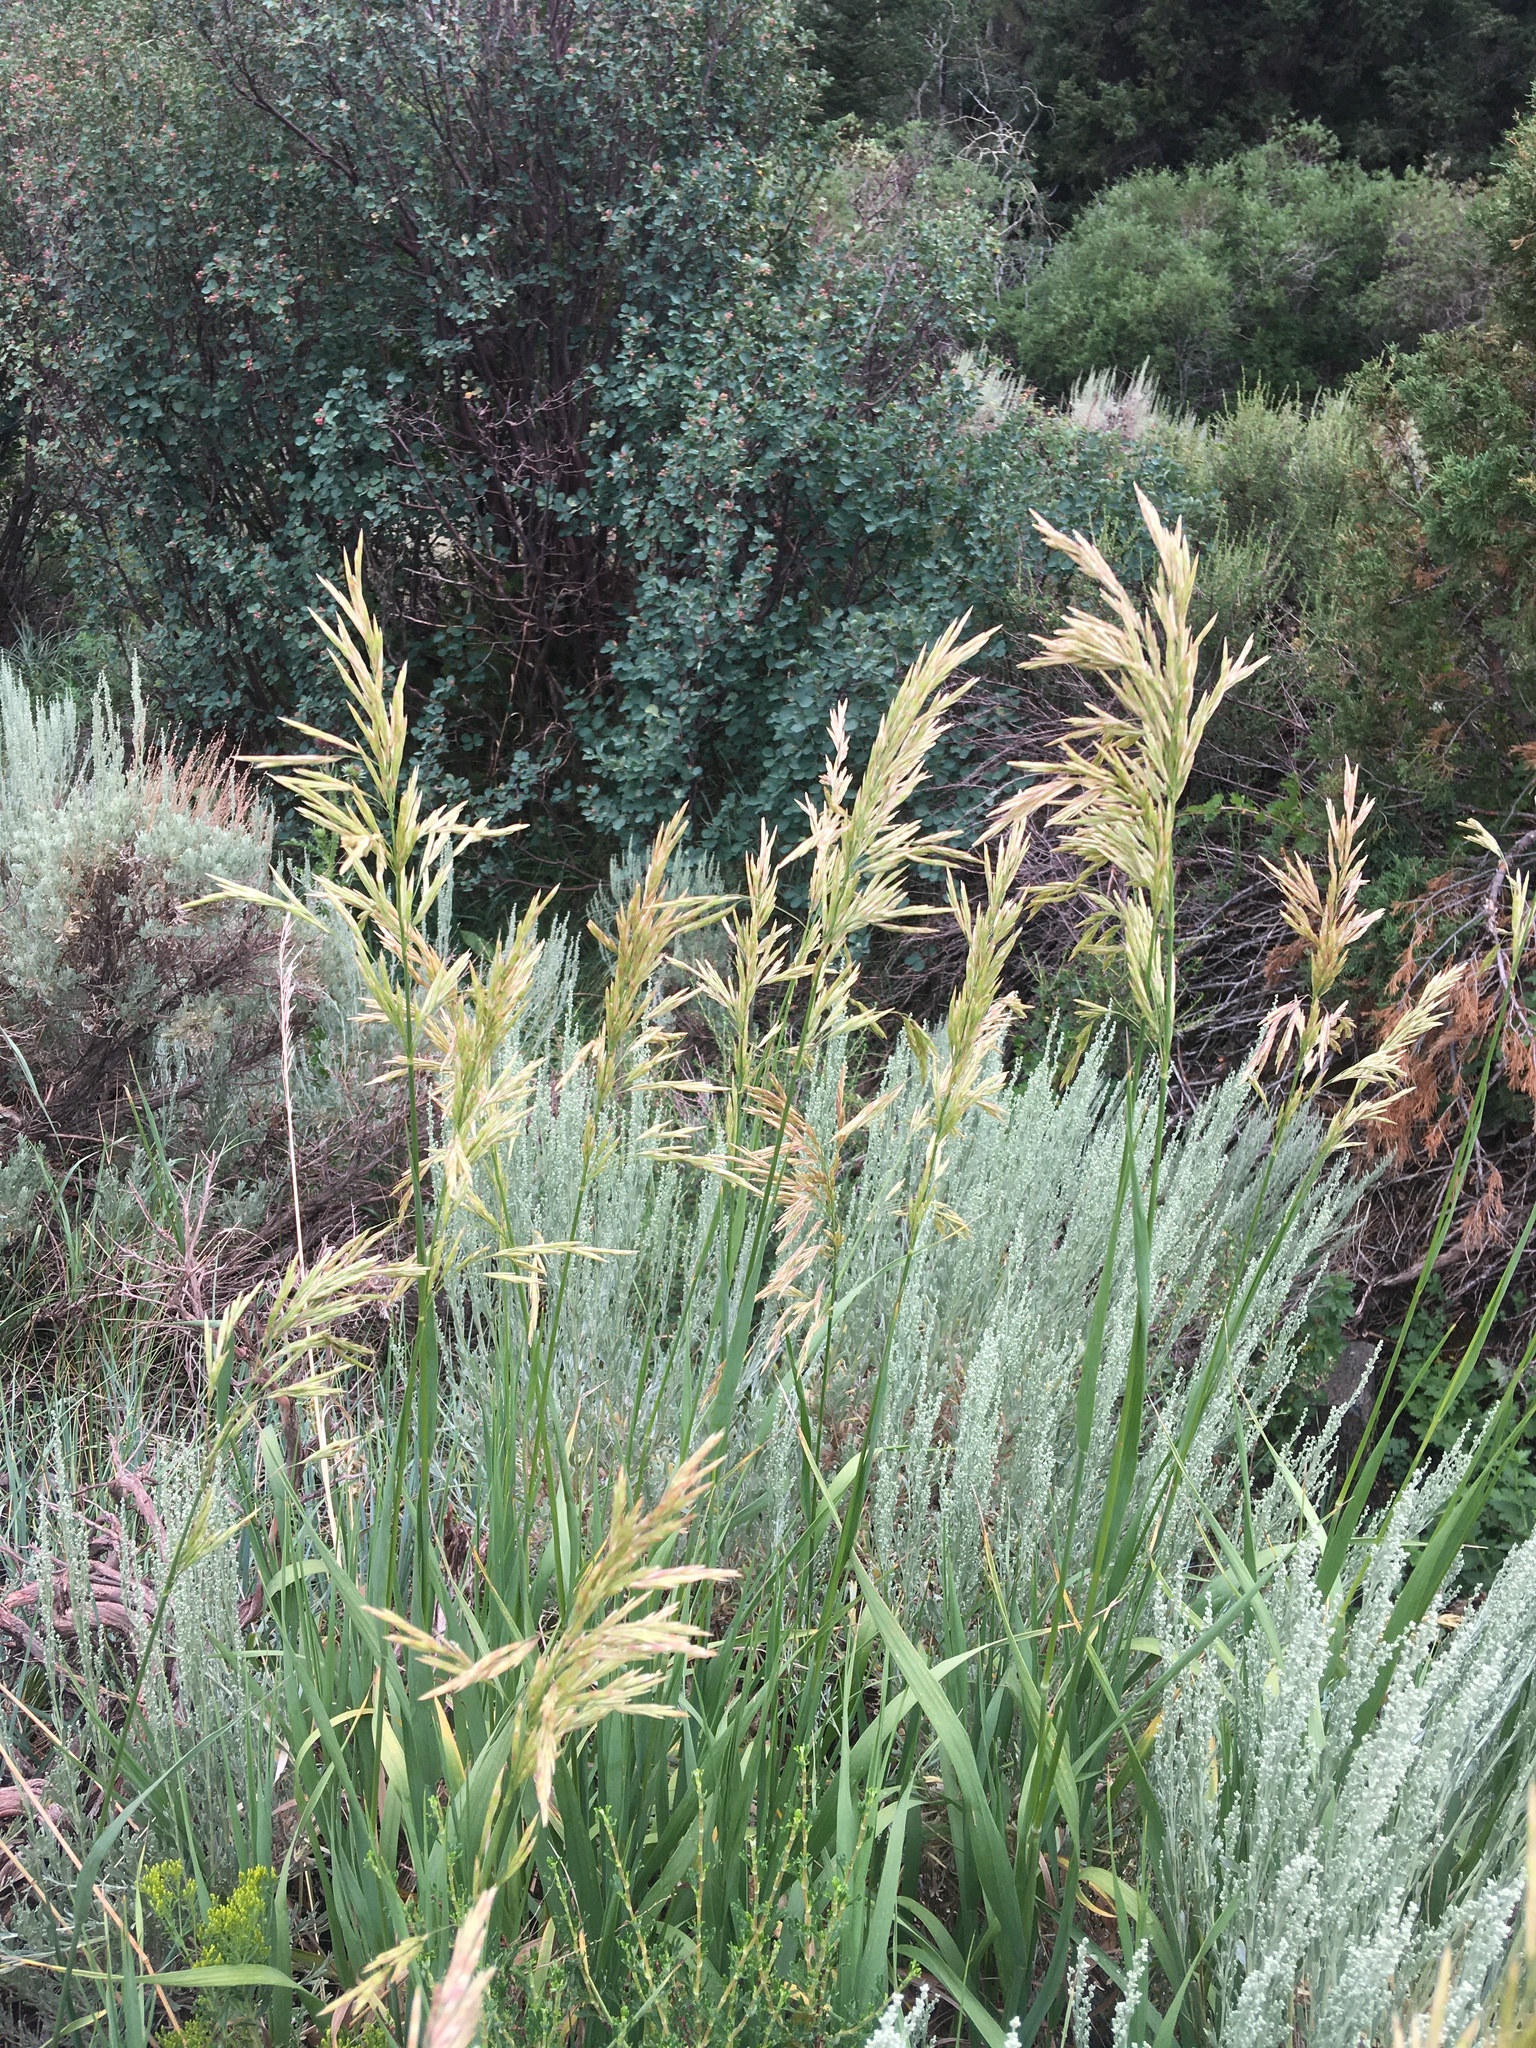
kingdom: Plantae
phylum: Tracheophyta
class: Liliopsida
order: Poales
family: Poaceae
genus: Bromus
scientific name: Bromus inermis
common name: Smooth brome
